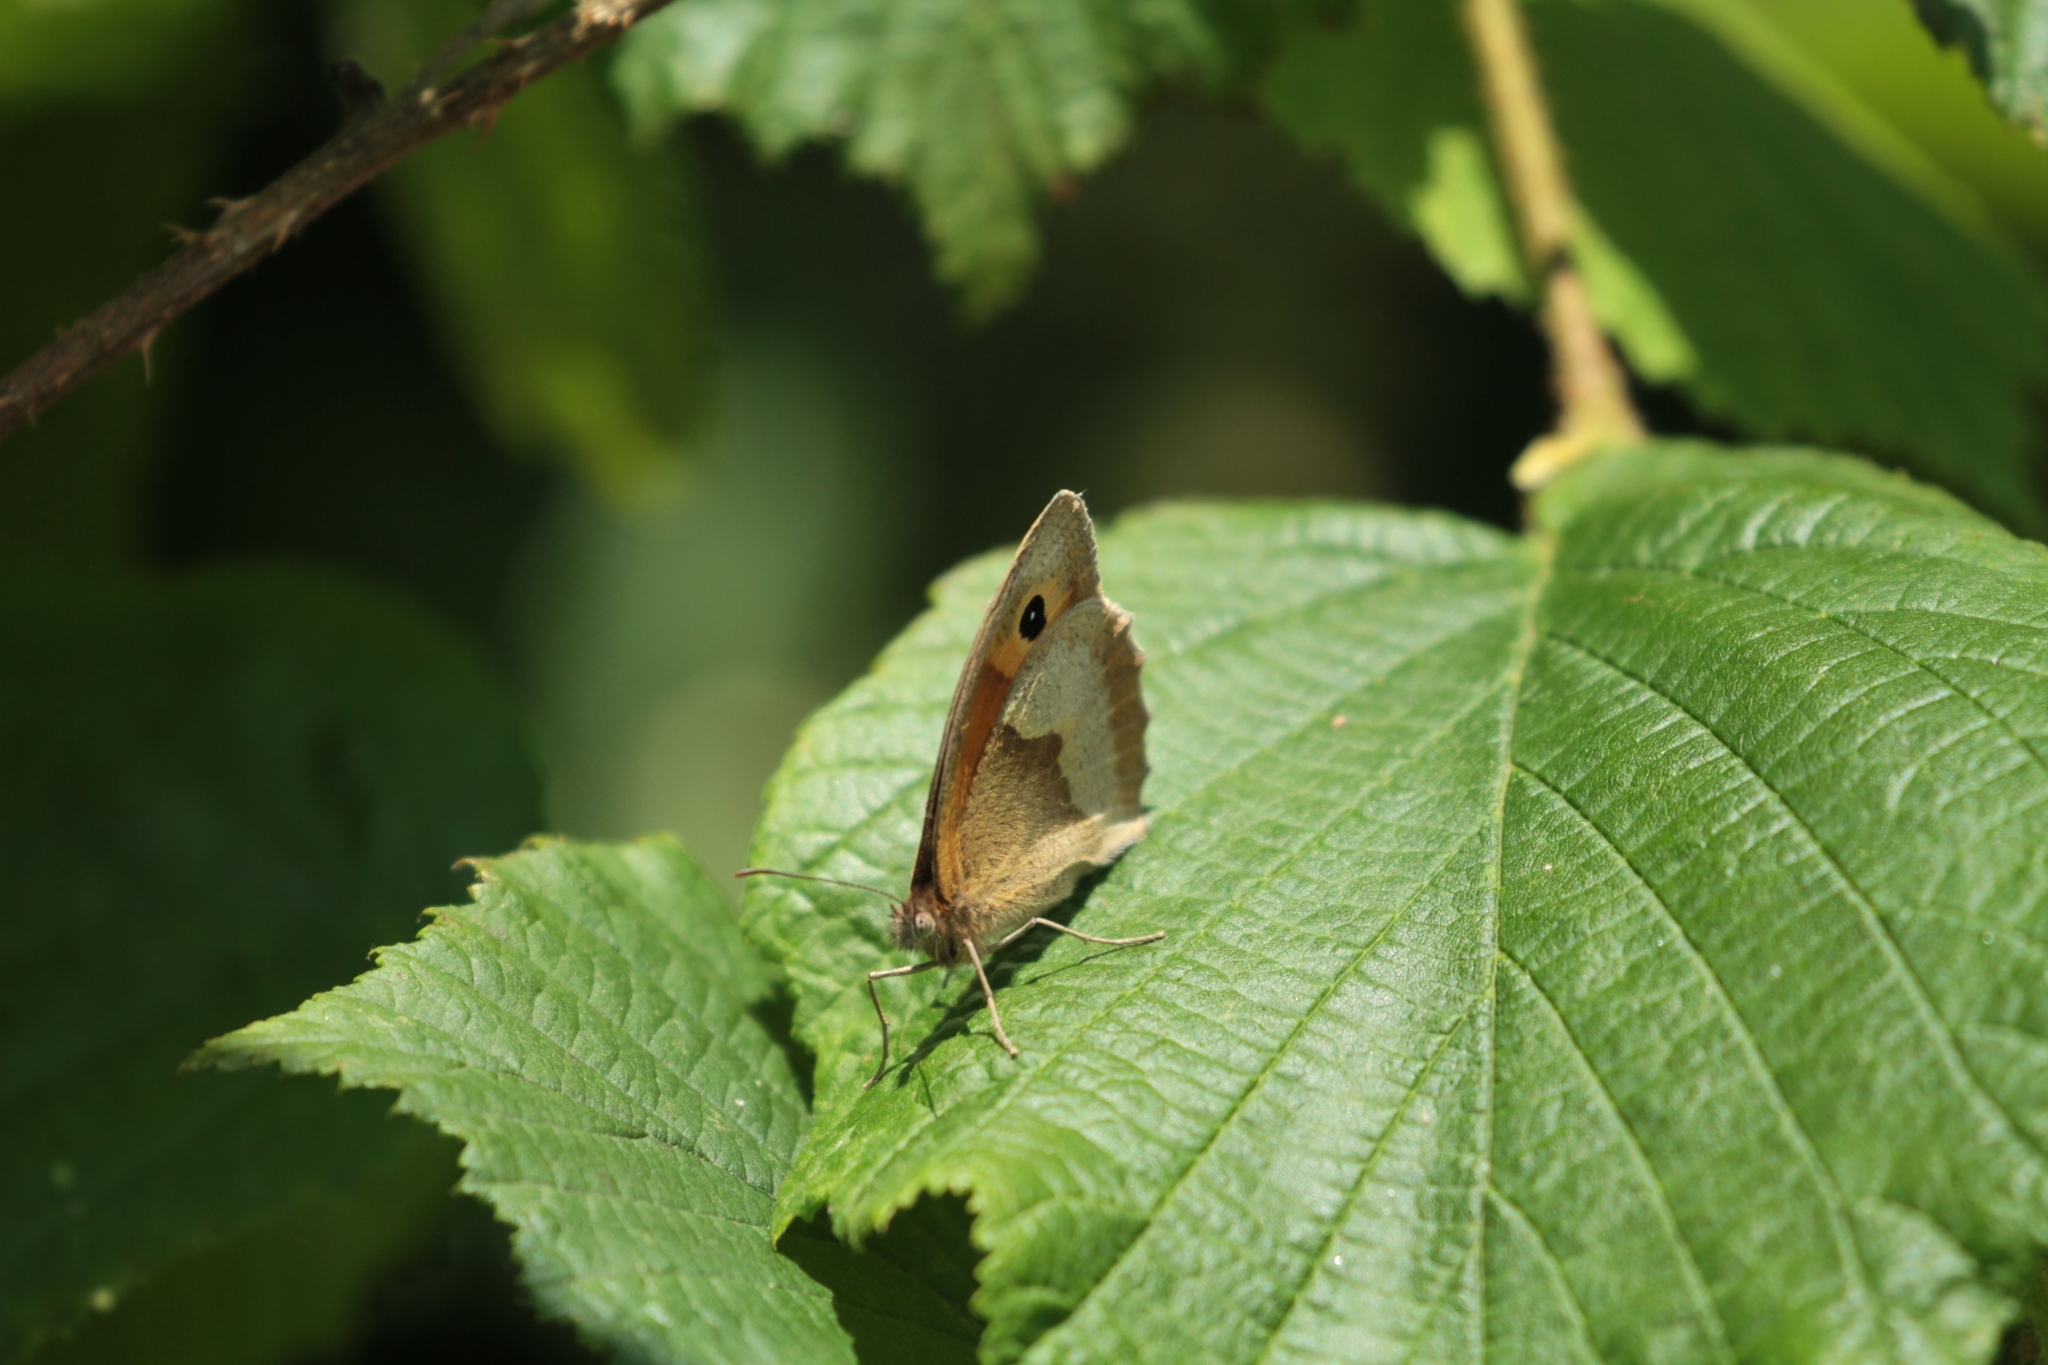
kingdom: Animalia
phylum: Arthropoda
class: Insecta
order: Lepidoptera
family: Nymphalidae
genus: Maniola
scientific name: Maniola jurtina
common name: Meadow brown
